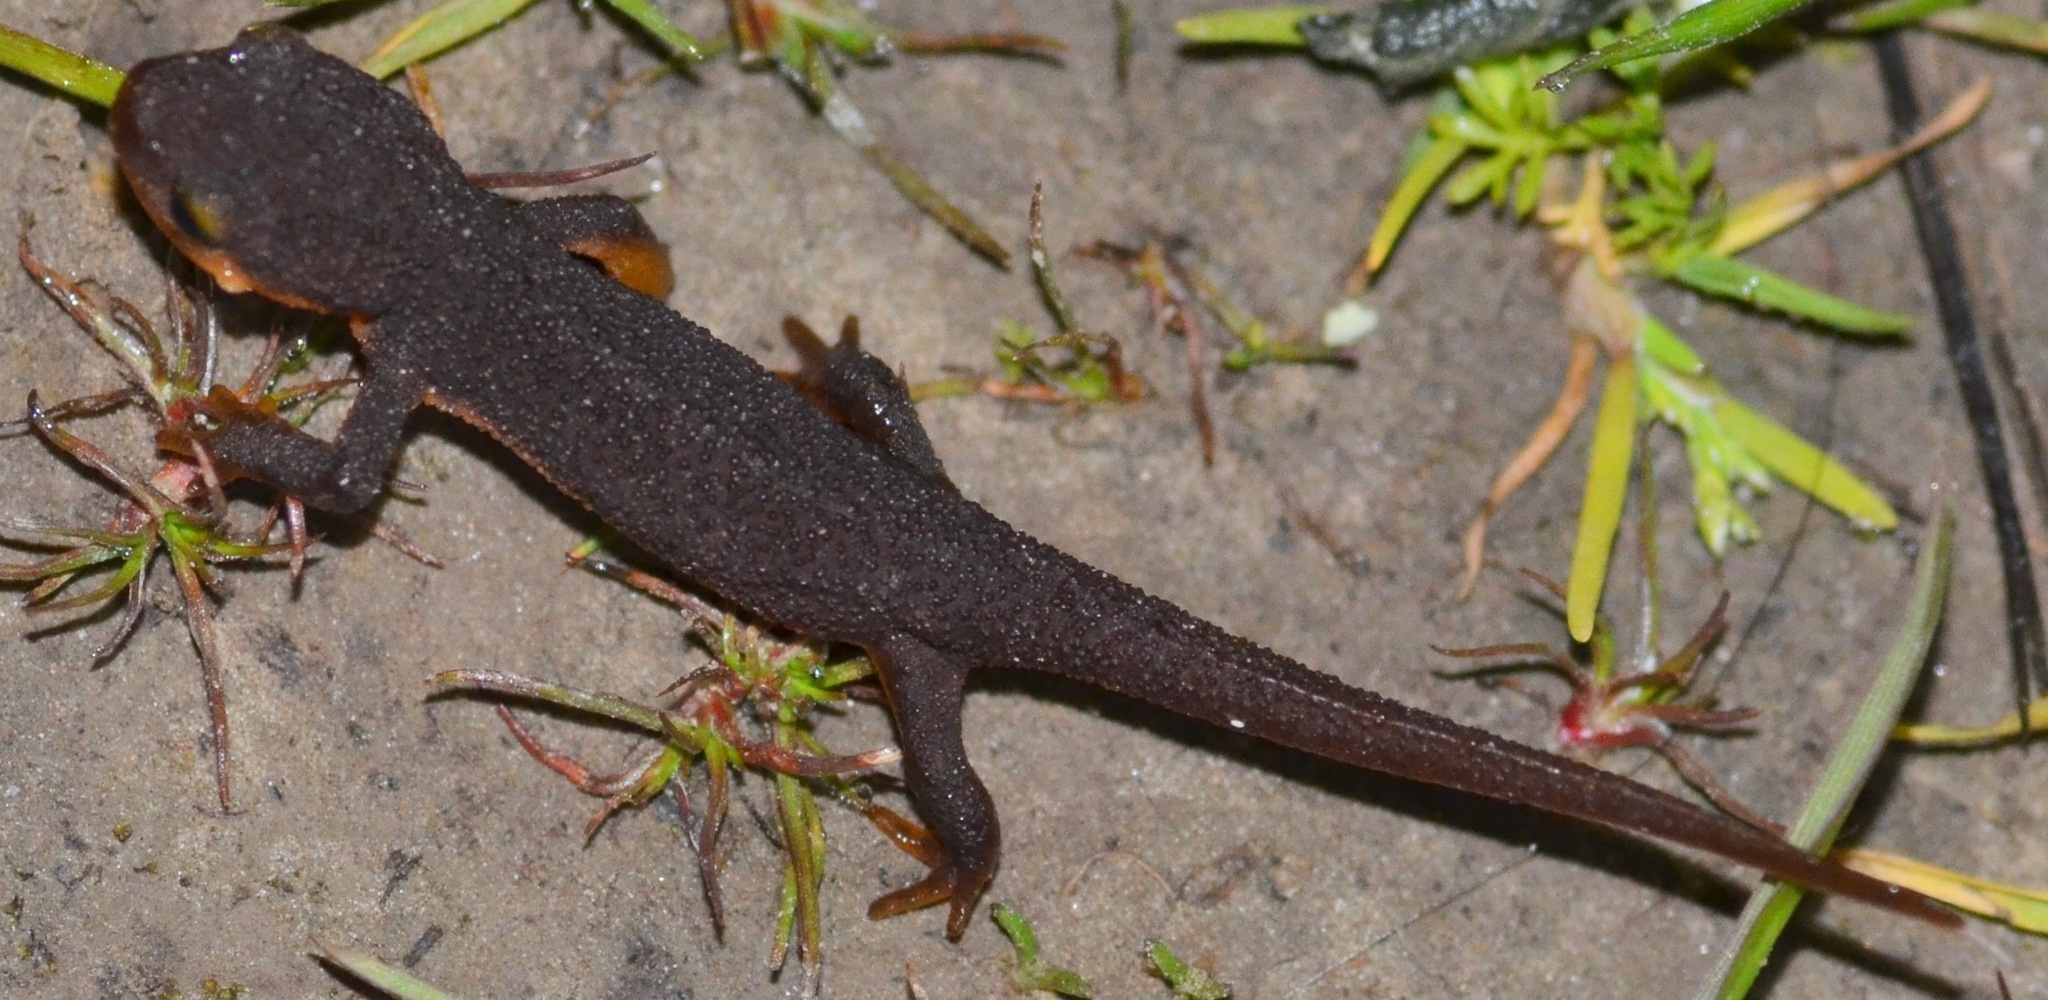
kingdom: Animalia
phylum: Chordata
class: Amphibia
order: Caudata
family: Salamandridae
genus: Taricha
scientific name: Taricha torosa
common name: California newt
